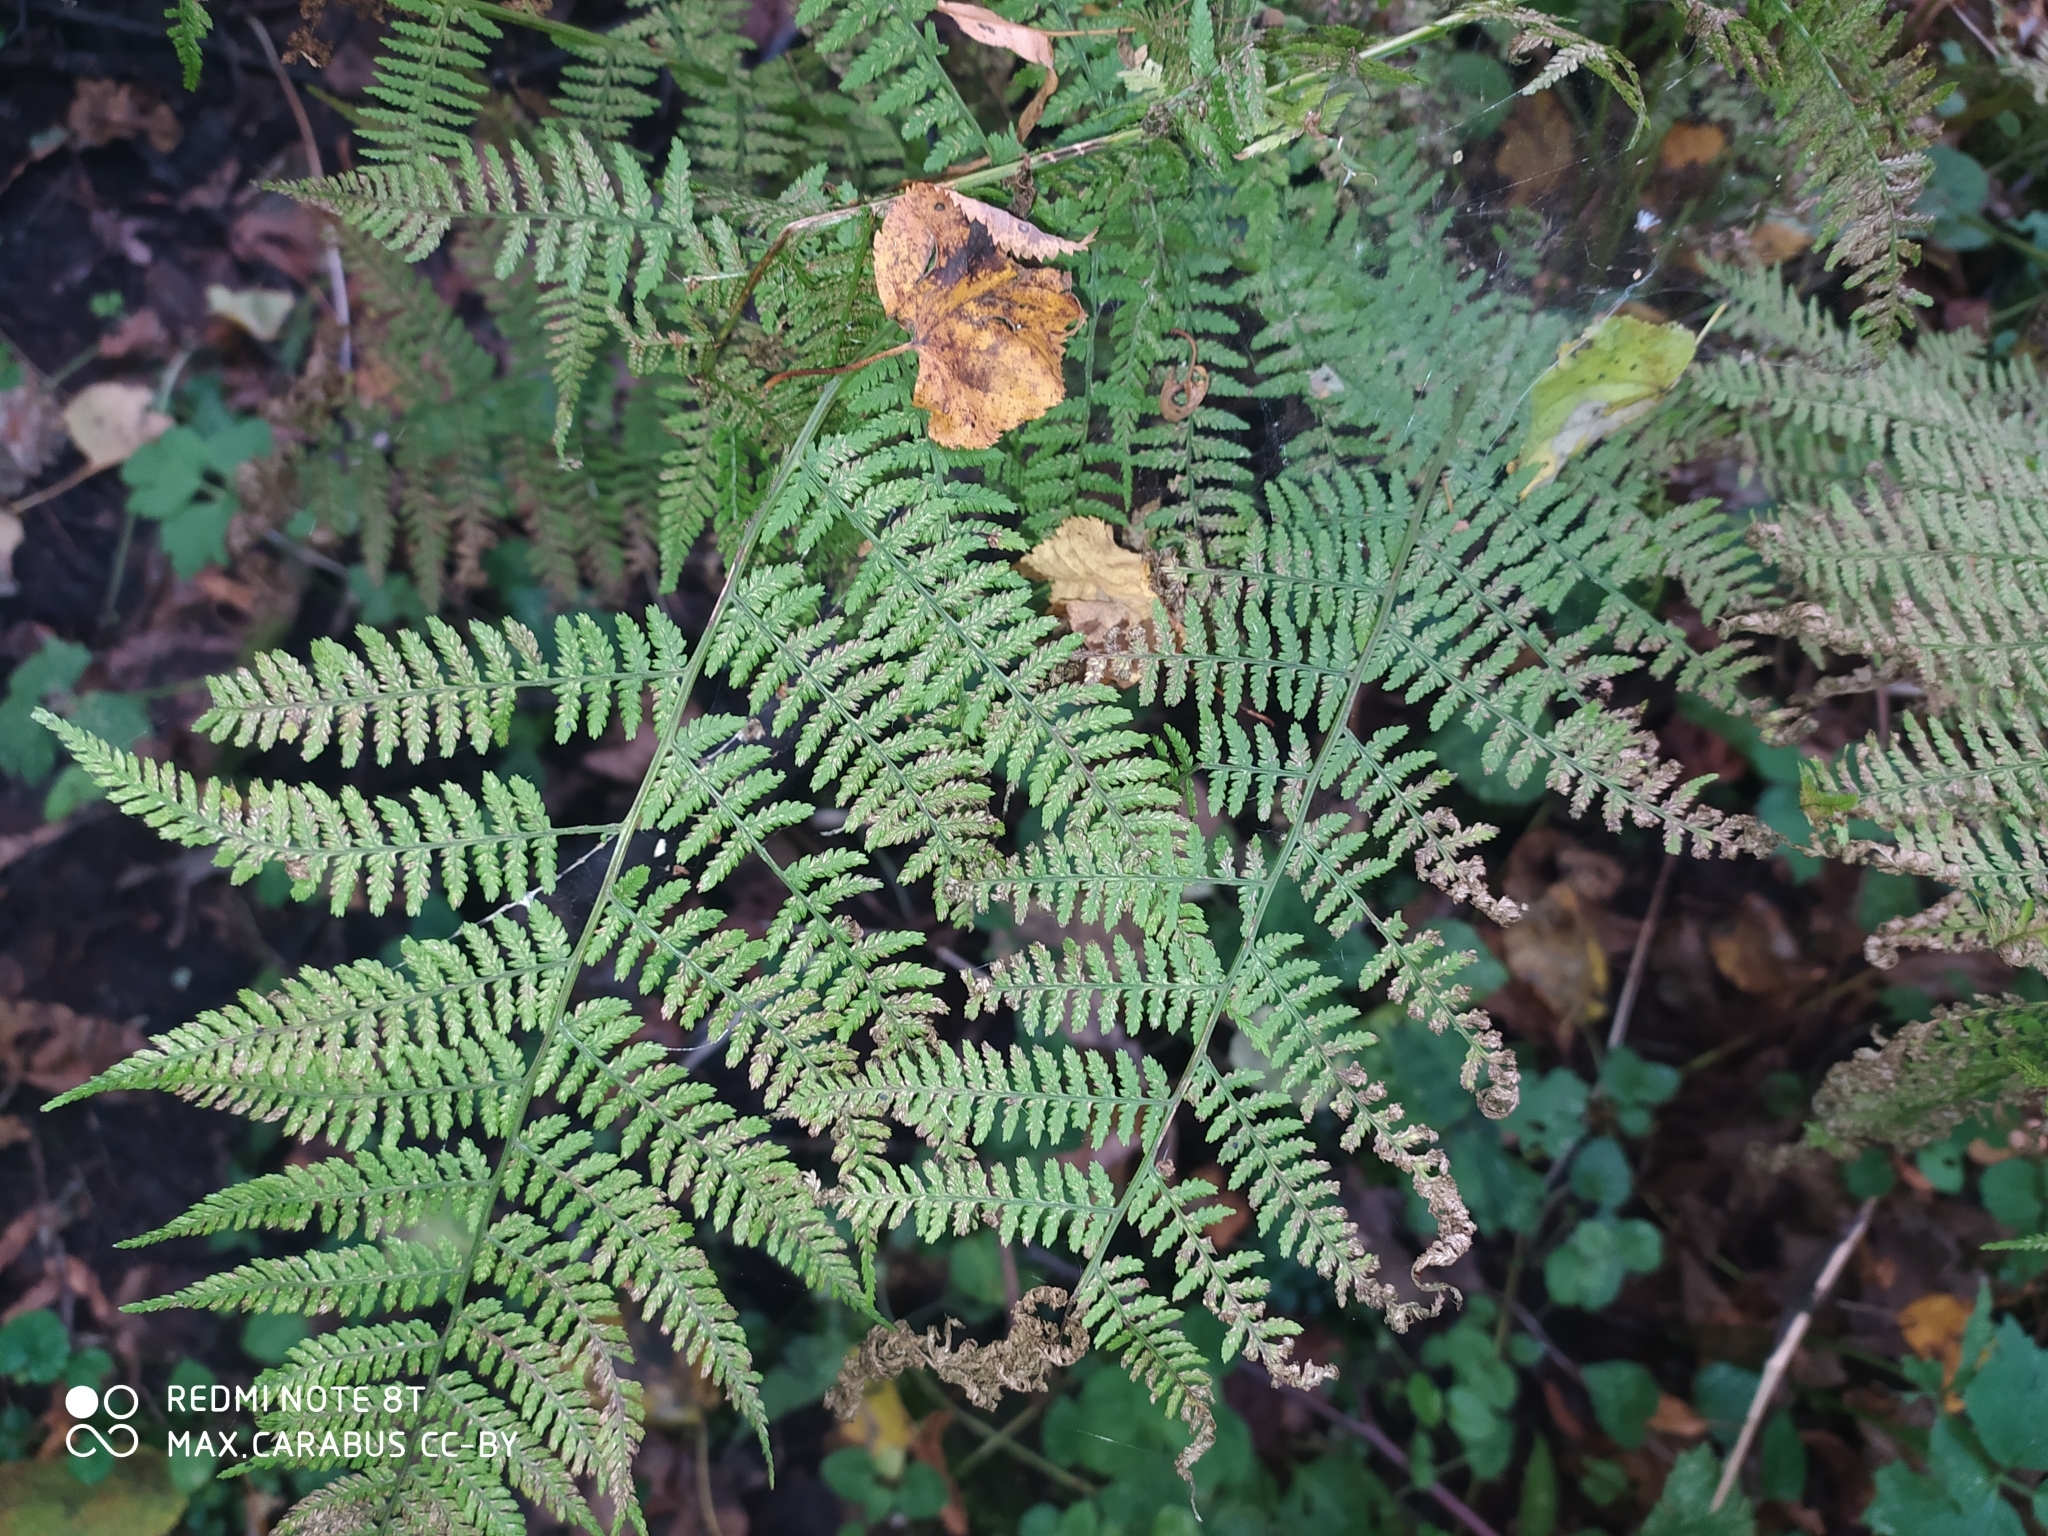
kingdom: Plantae
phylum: Tracheophyta
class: Polypodiopsida
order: Polypodiales
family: Athyriaceae
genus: Athyrium
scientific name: Athyrium filix-femina
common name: Lady fern
